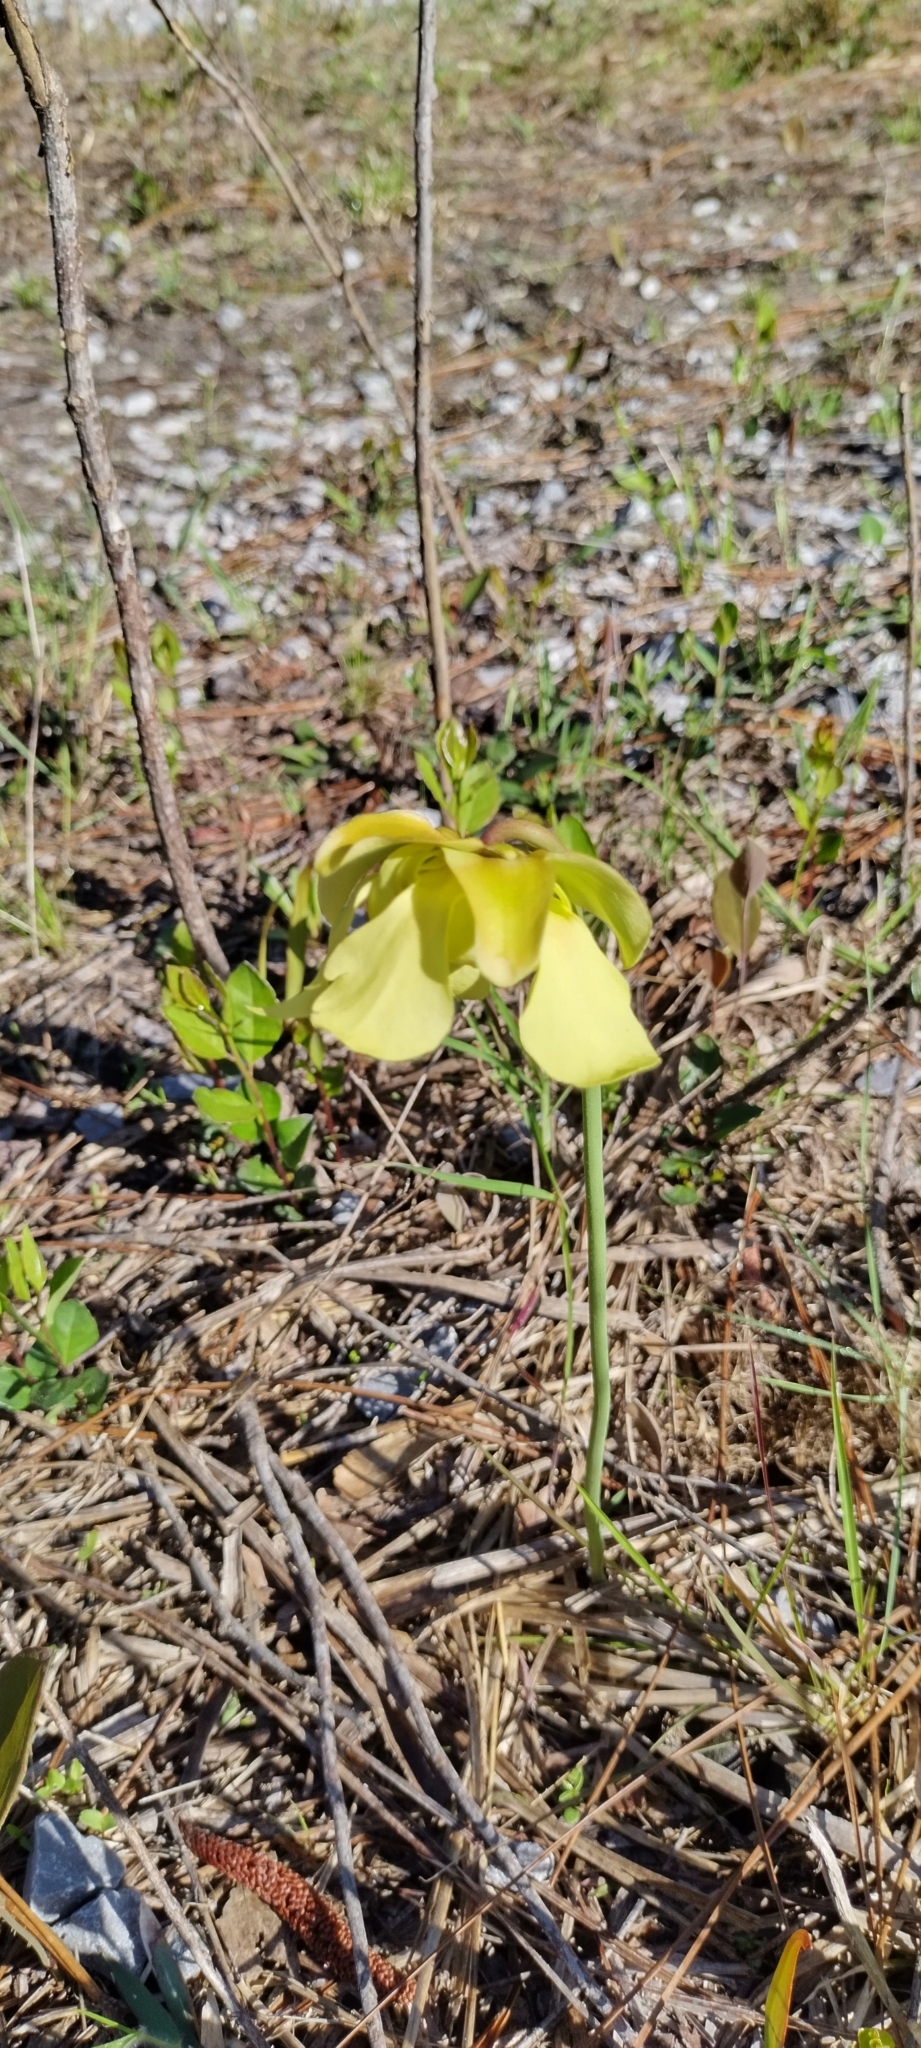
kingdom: Plantae
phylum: Tracheophyta
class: Magnoliopsida
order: Ericales
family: Sarraceniaceae
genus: Sarracenia
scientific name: Sarracenia alata
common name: Yellow trumpets
